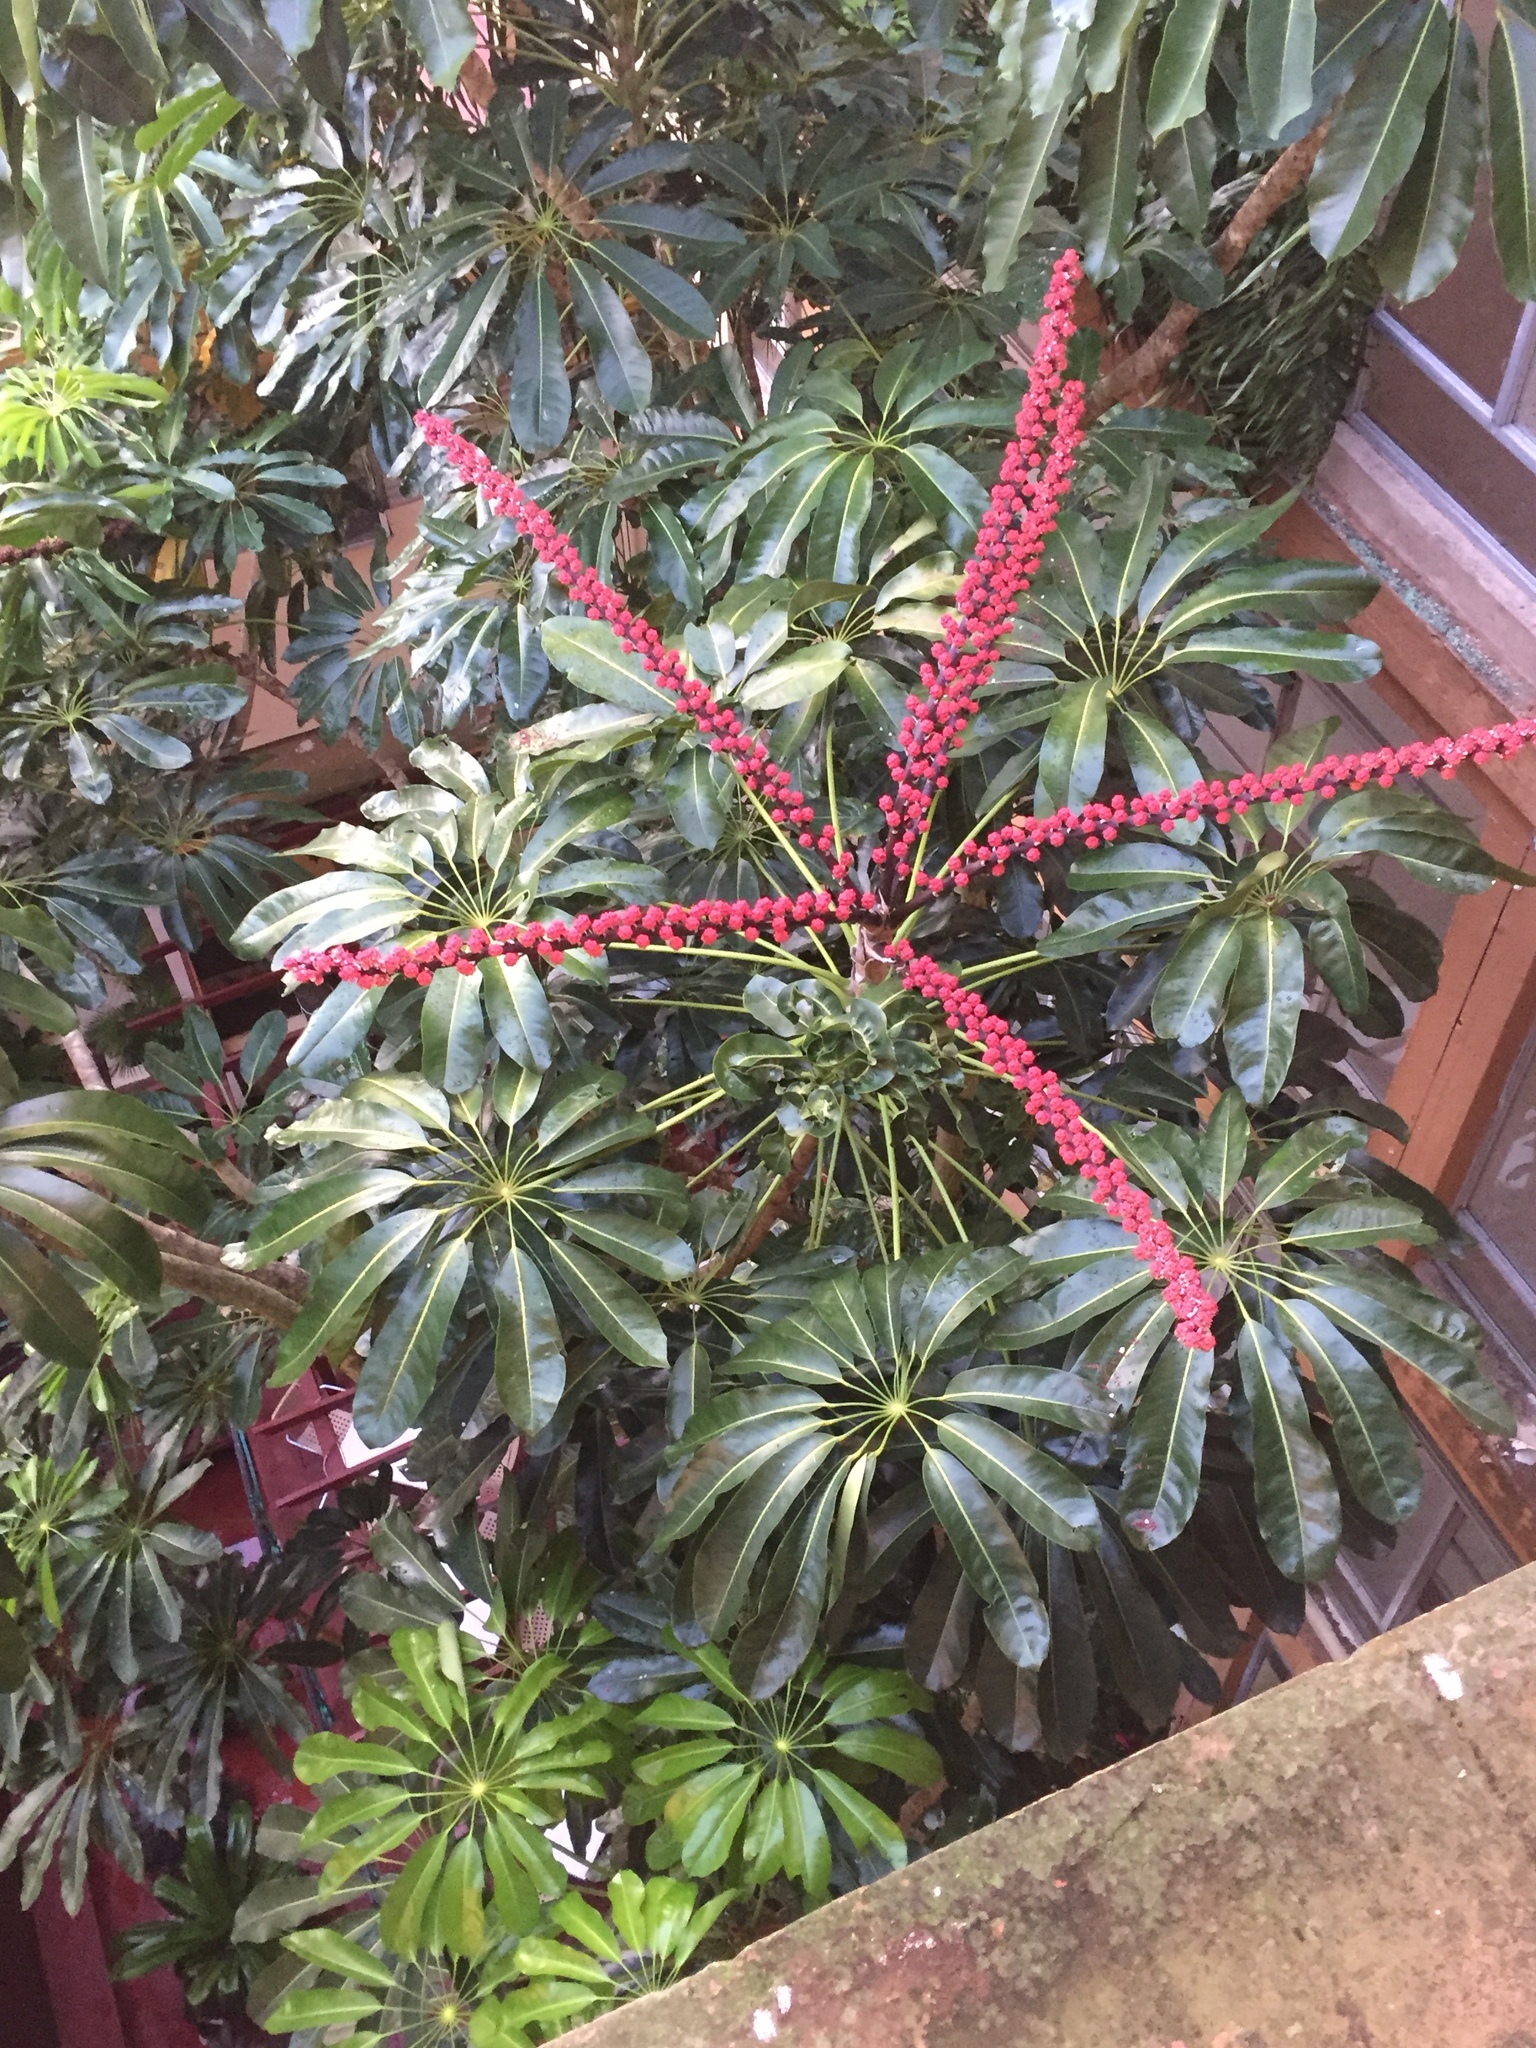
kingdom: Plantae
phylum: Tracheophyta
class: Magnoliopsida
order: Apiales
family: Araliaceae
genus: Heptapleurum
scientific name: Heptapleurum actinophyllum
